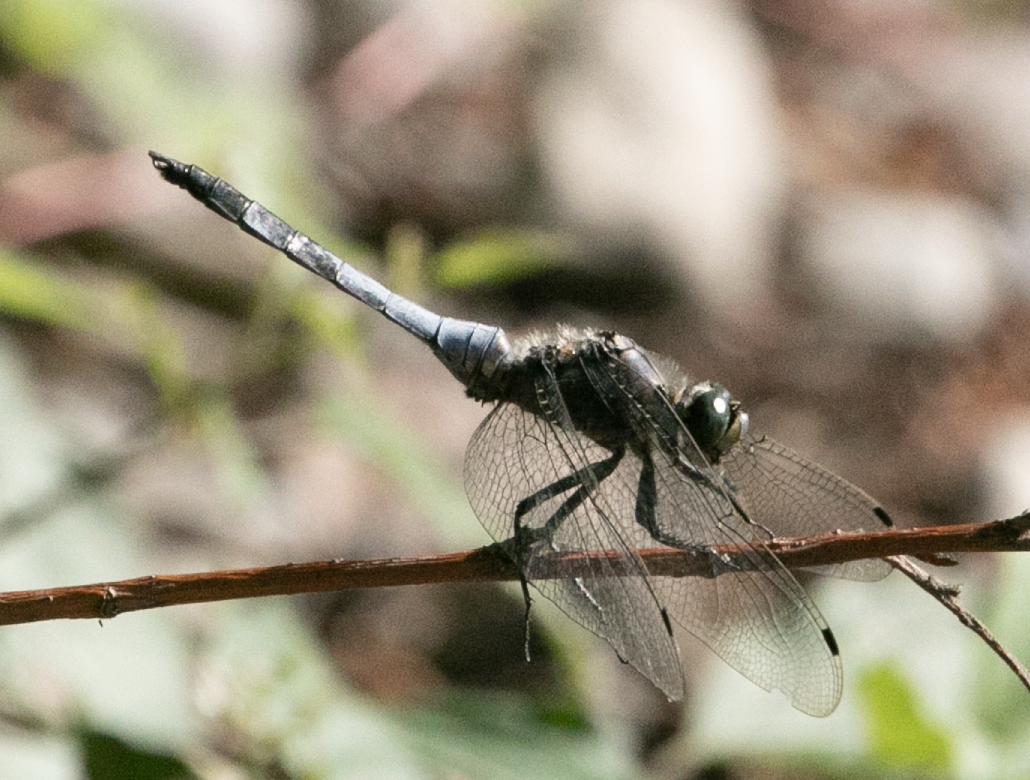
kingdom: Animalia
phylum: Arthropoda
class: Insecta
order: Odonata
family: Libellulidae
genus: Orthetrum
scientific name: Orthetrum cancellatum
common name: Black-tailed skimmer
